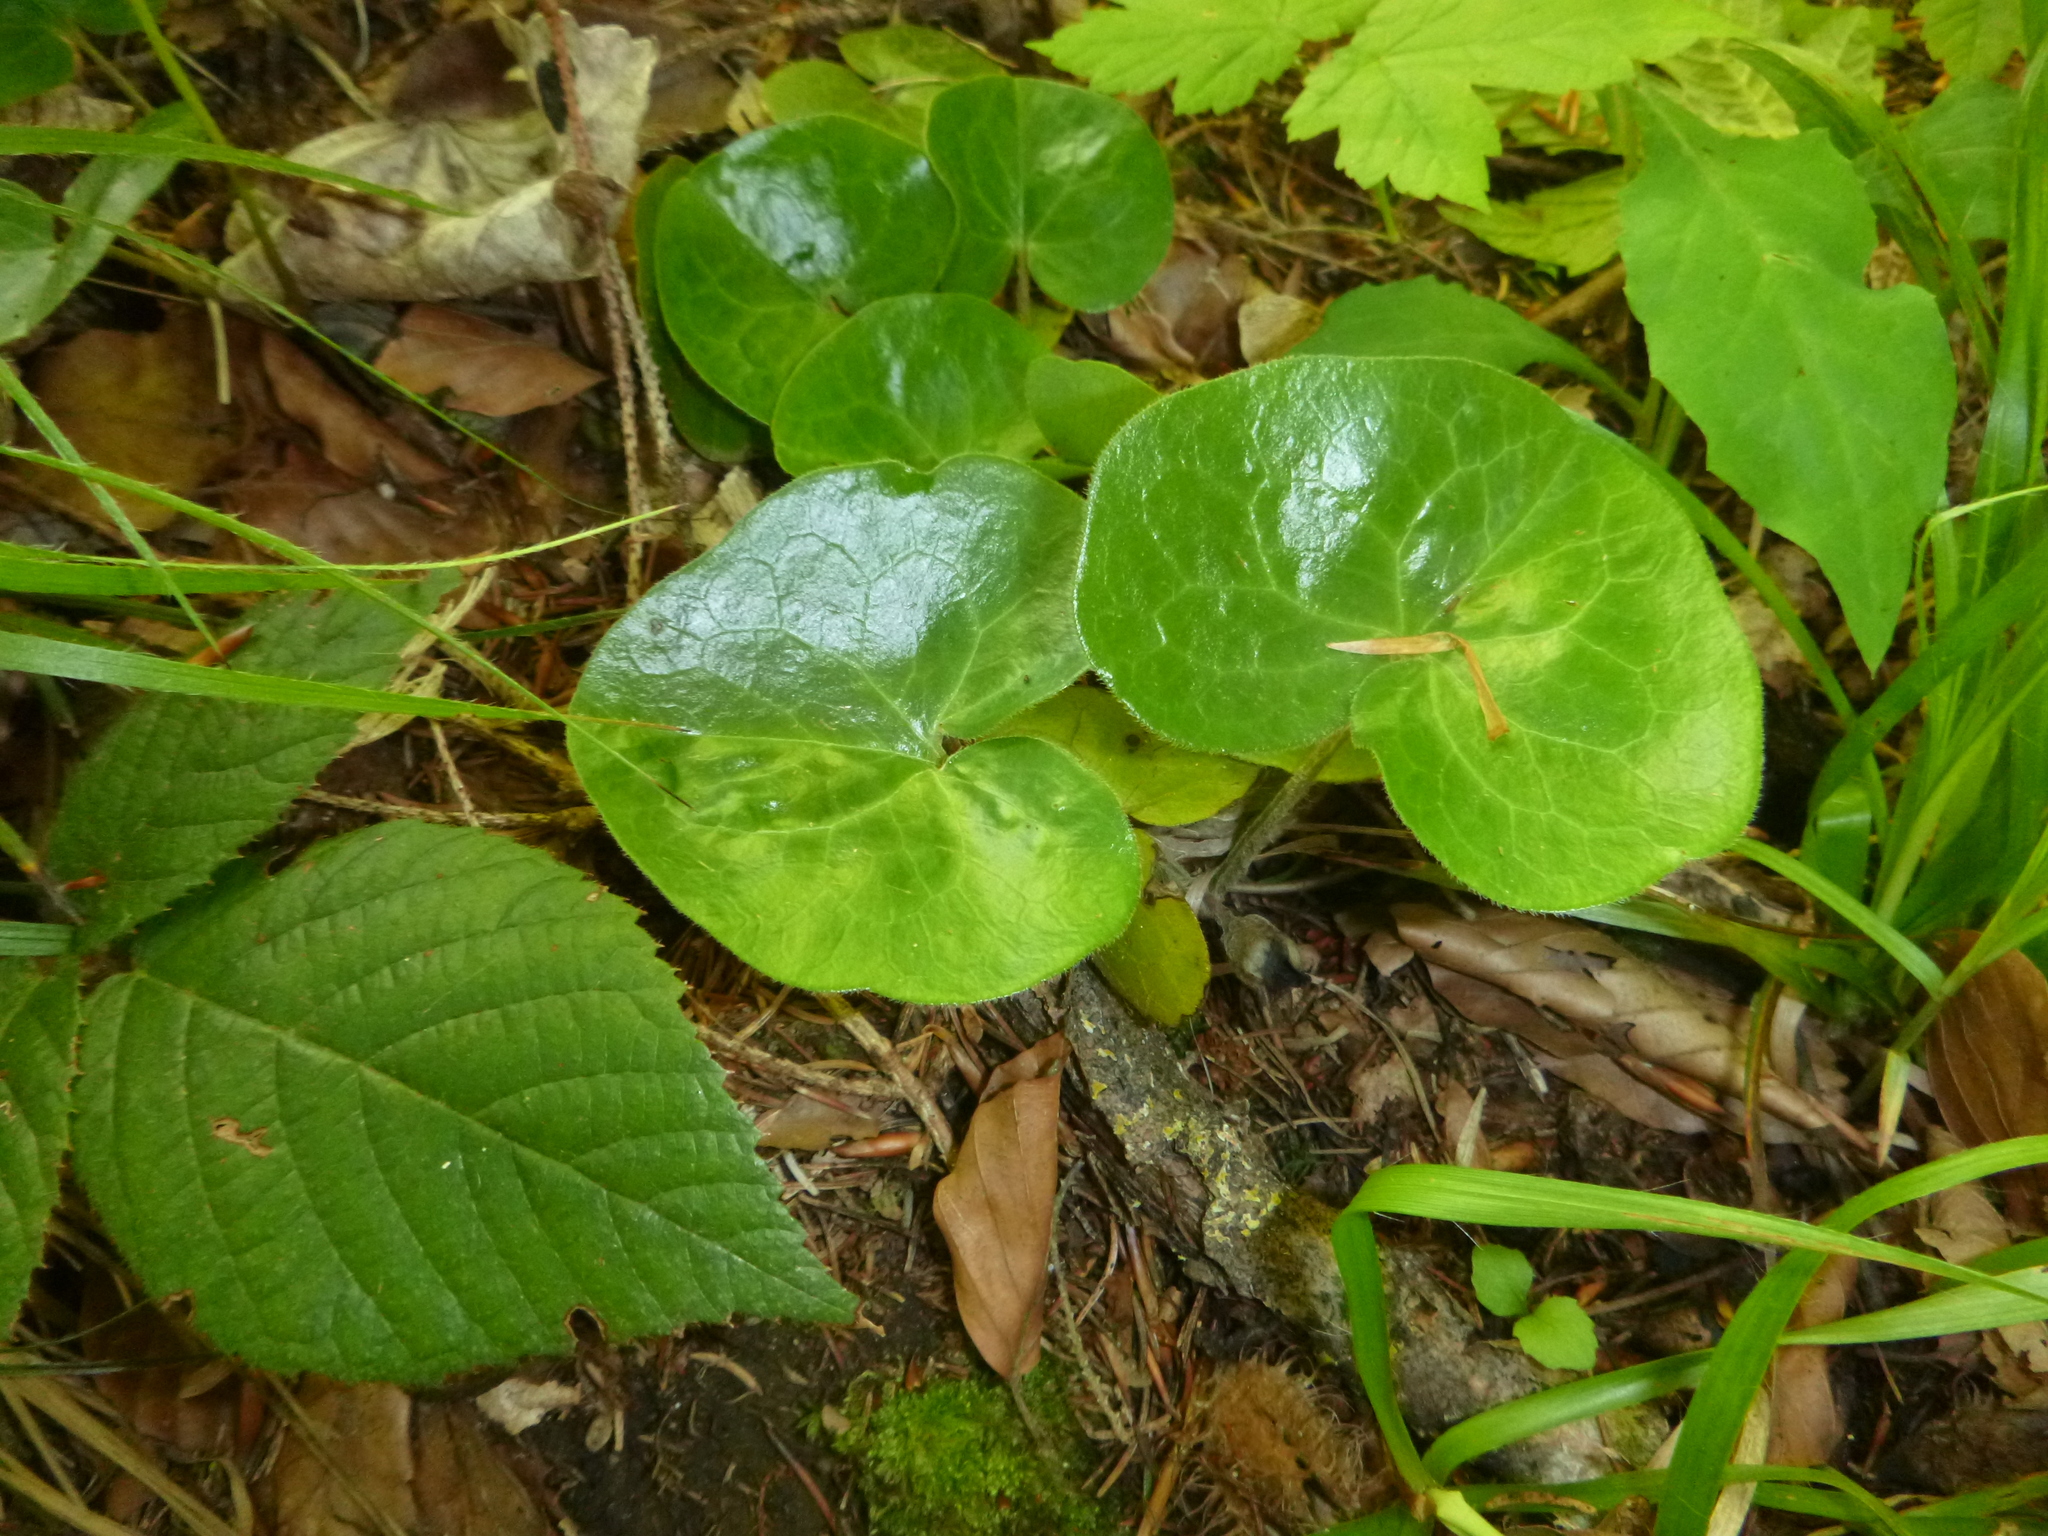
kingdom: Plantae
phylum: Tracheophyta
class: Magnoliopsida
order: Piperales
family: Aristolochiaceae
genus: Asarum
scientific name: Asarum europaeum
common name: Asarabacca
